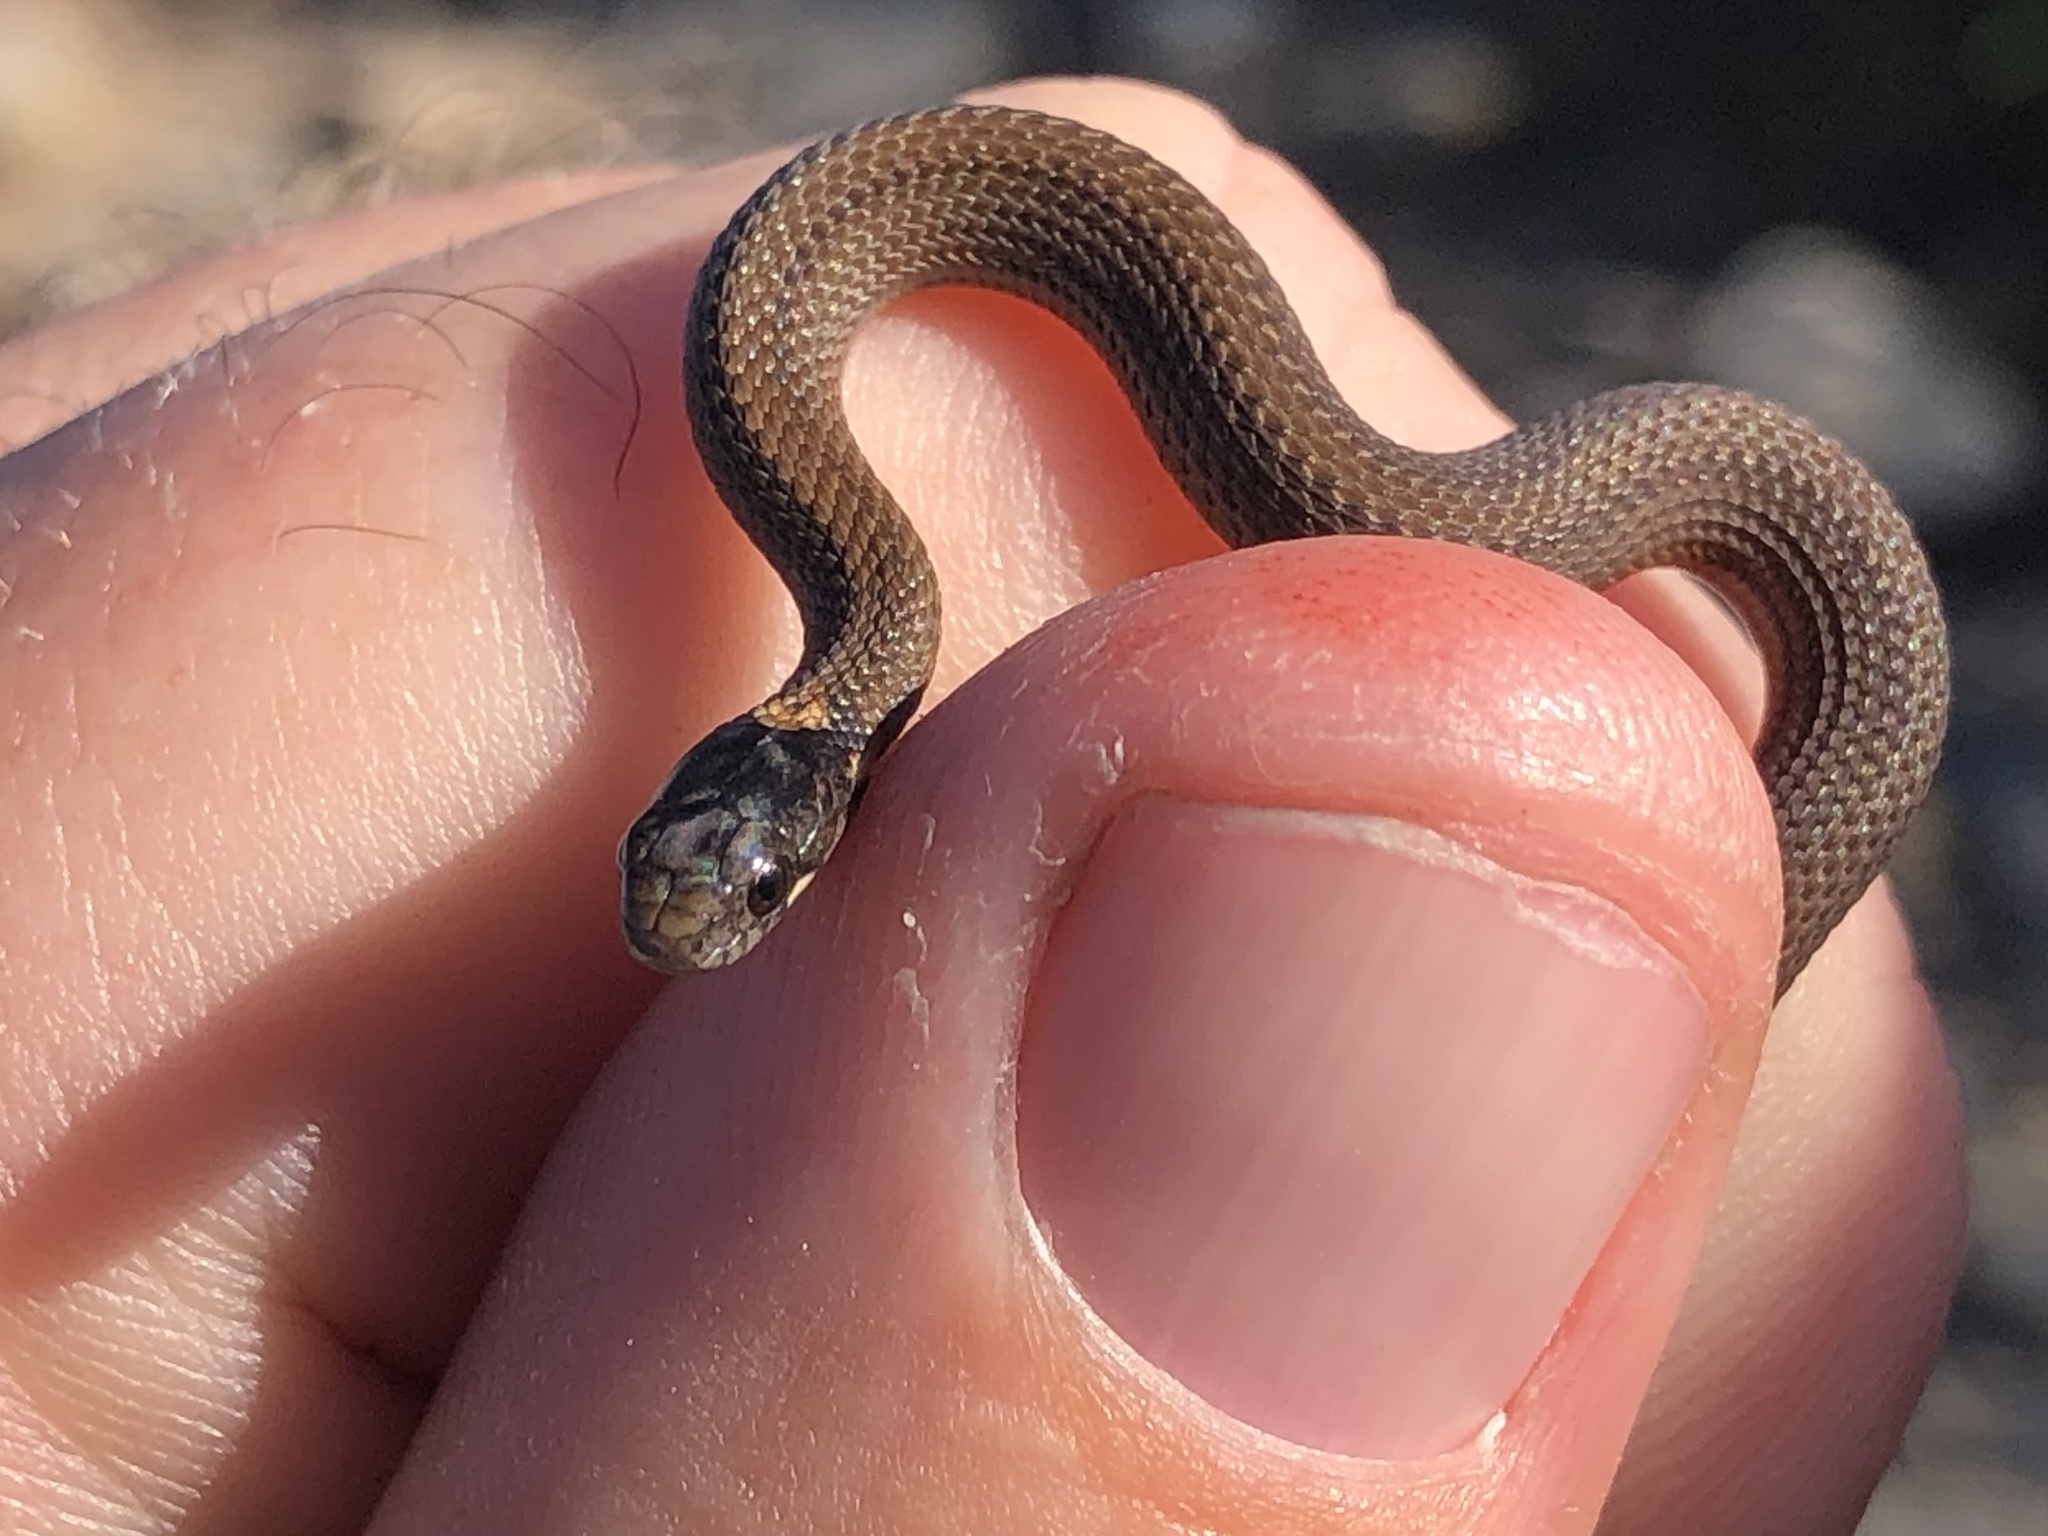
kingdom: Animalia
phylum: Chordata
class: Squamata
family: Colubridae
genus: Storeria
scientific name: Storeria occipitomaculata
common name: Redbelly snake
